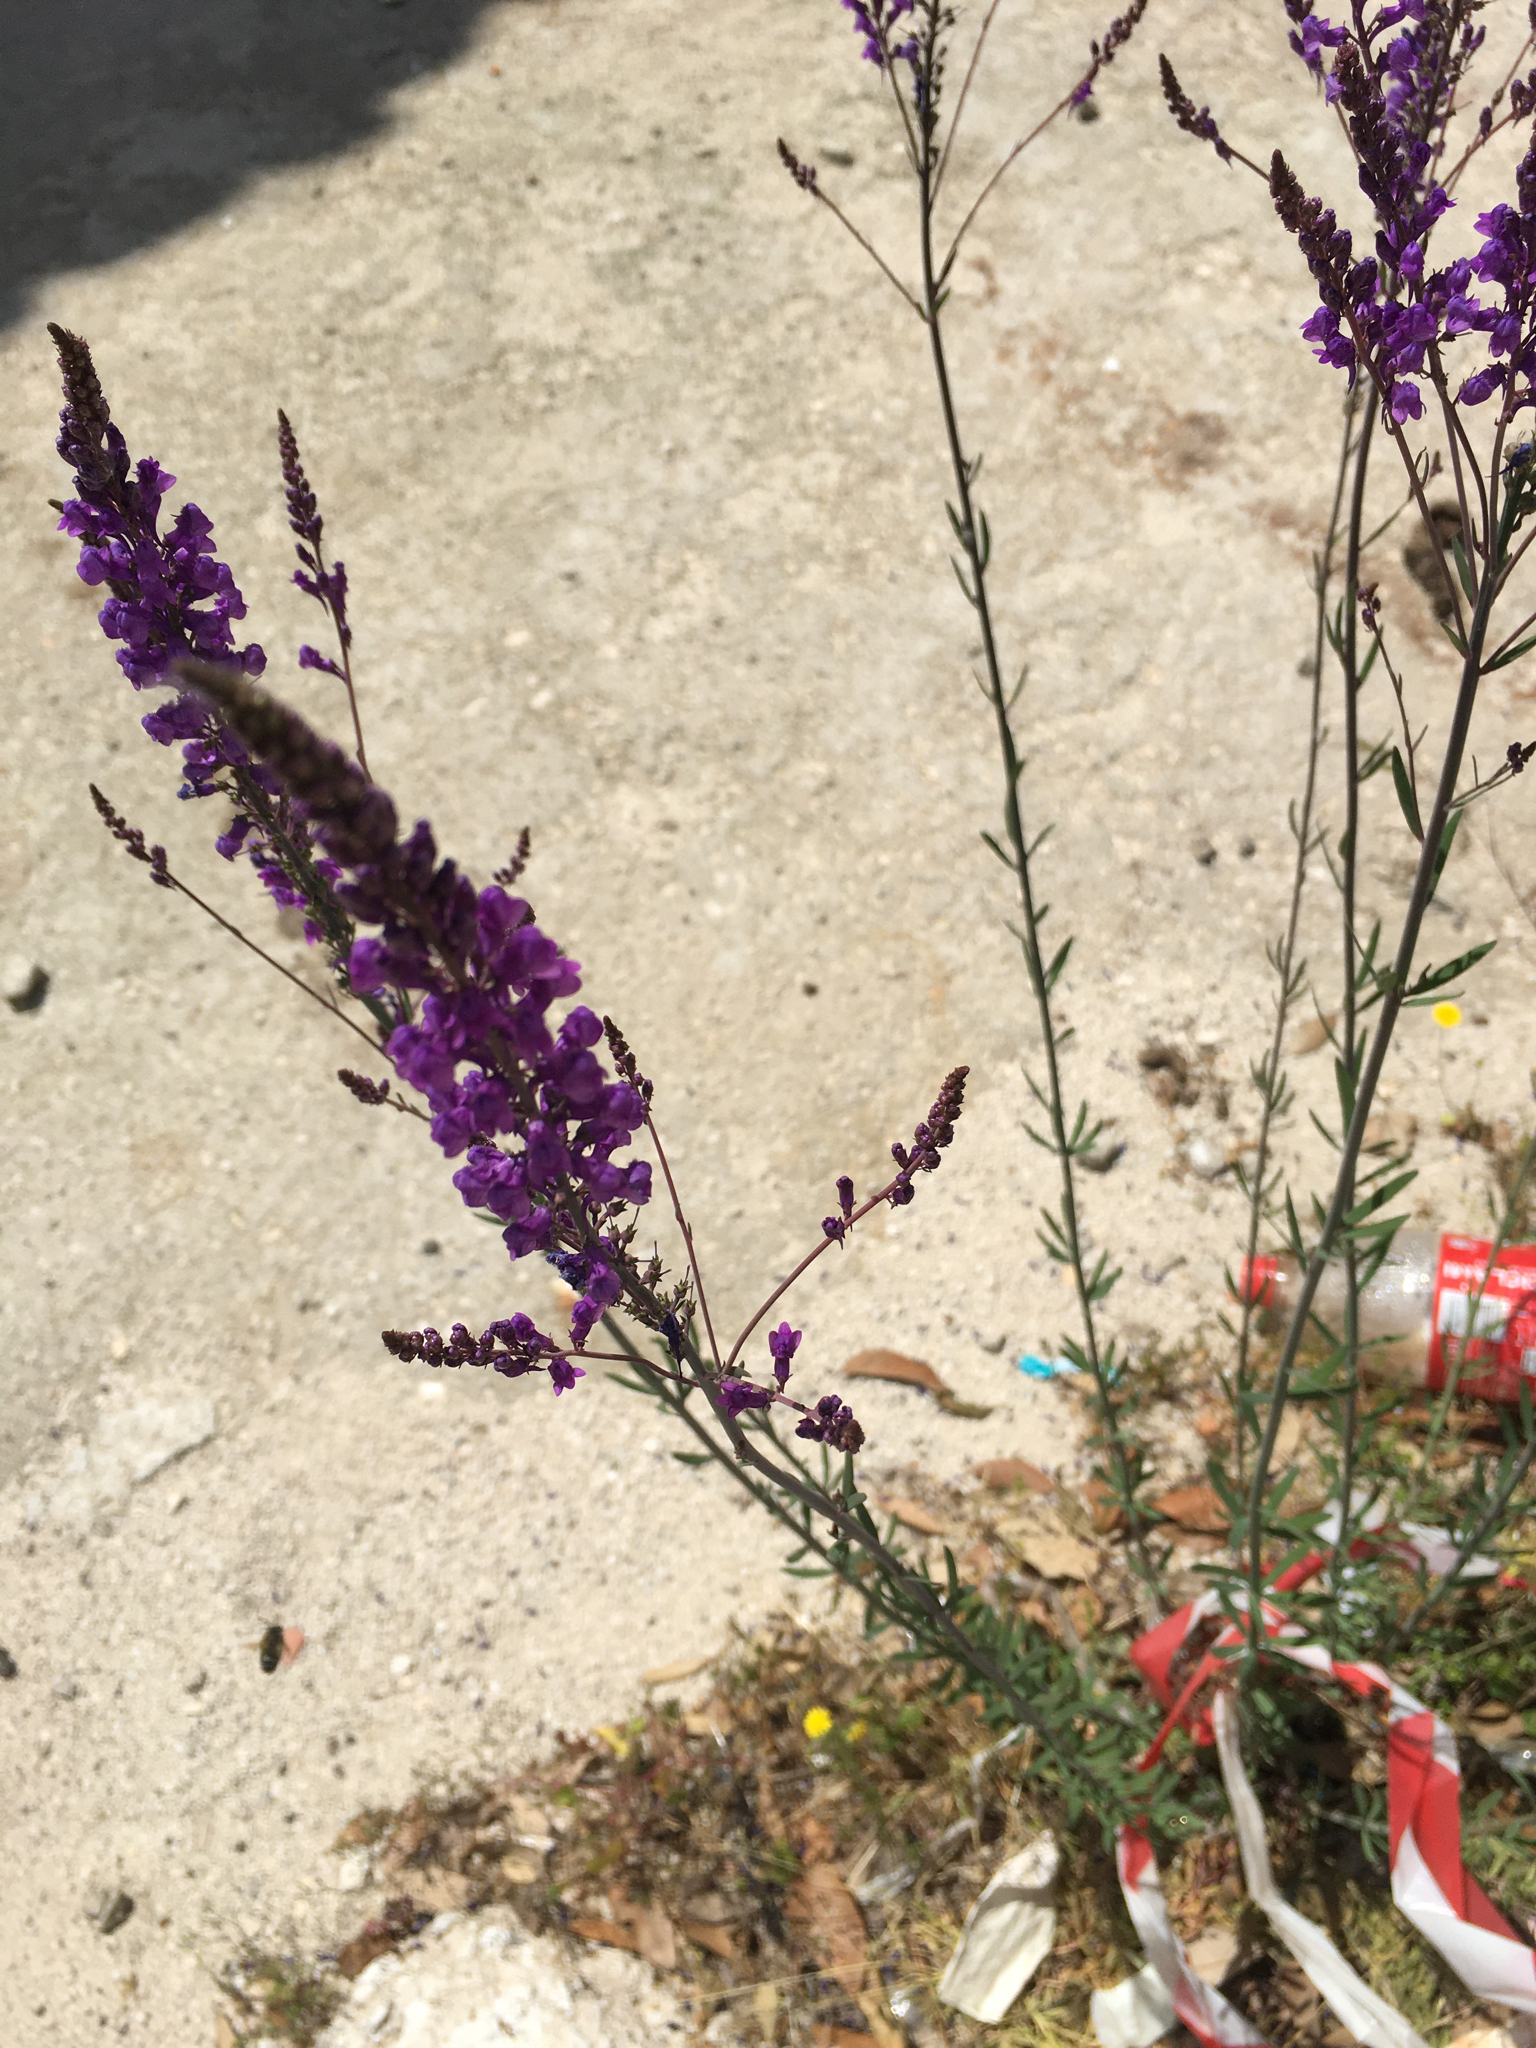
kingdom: Plantae
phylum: Tracheophyta
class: Magnoliopsida
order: Lamiales
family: Plantaginaceae
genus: Linaria
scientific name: Linaria purpurea
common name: Purple toadflax
